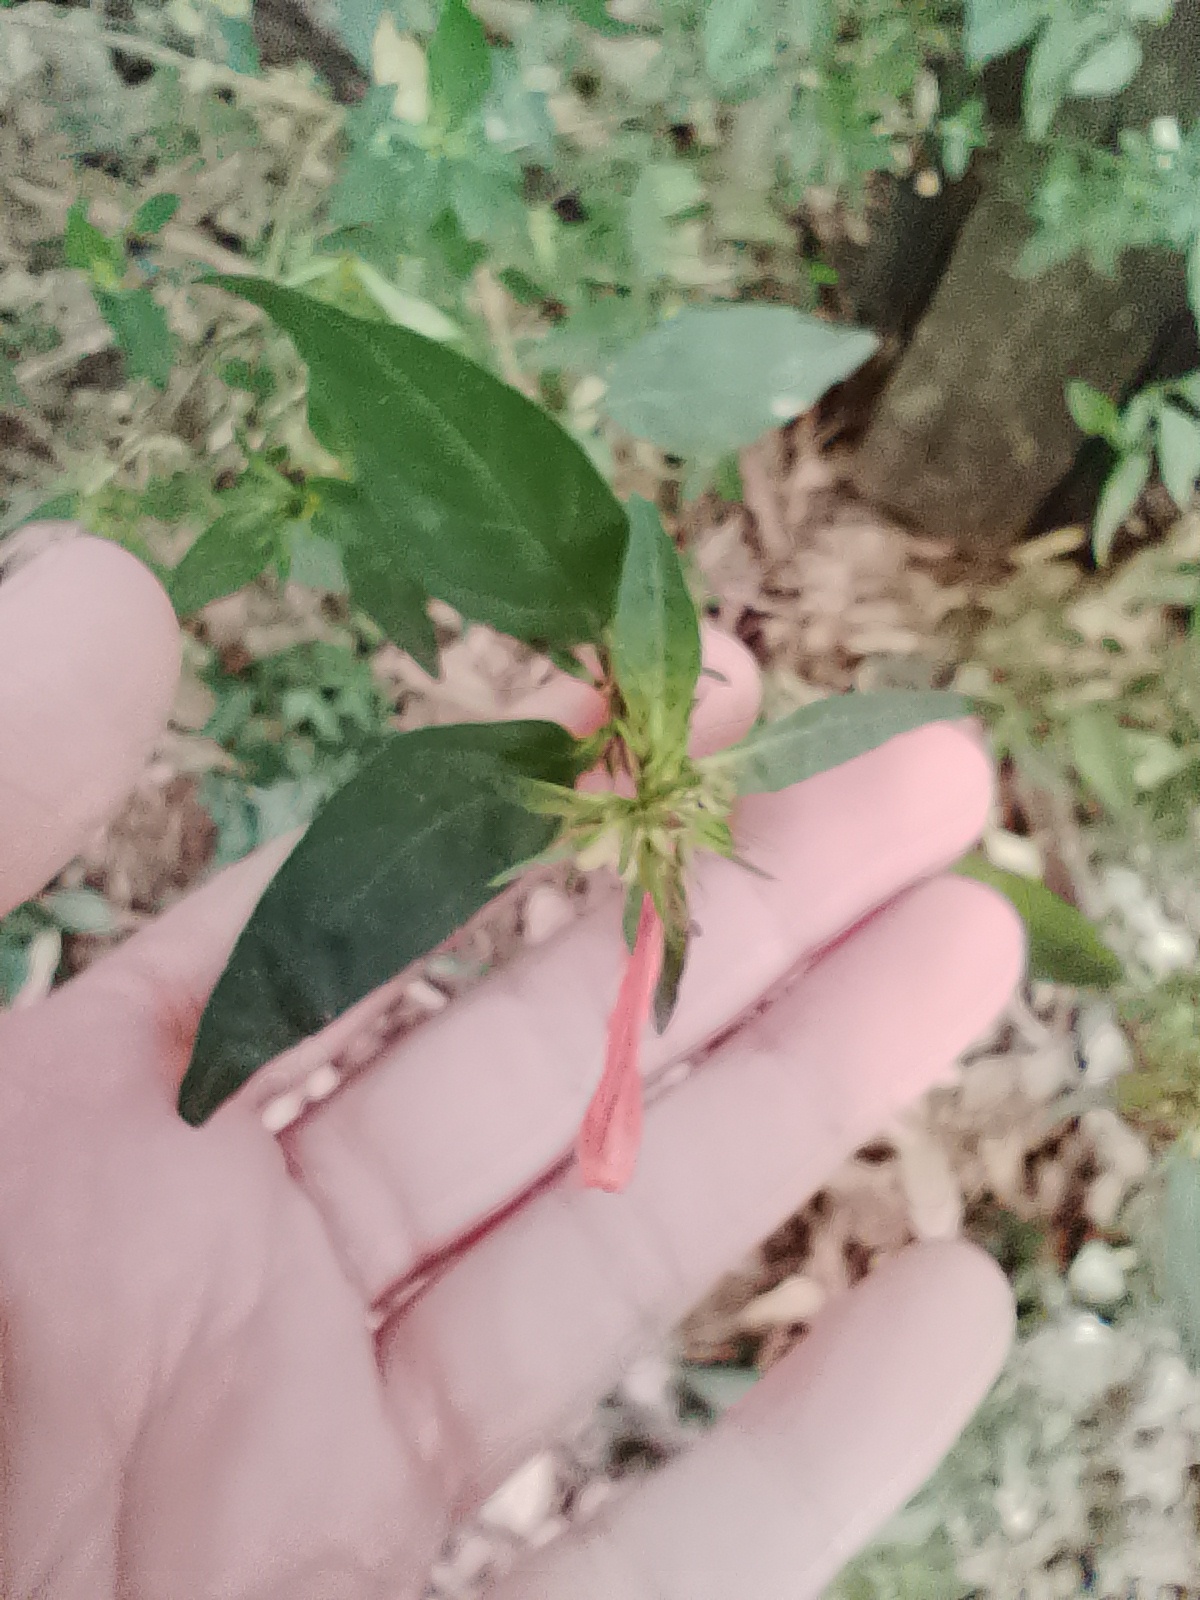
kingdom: Plantae
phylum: Tracheophyta
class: Magnoliopsida
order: Lamiales
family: Acanthaceae
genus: Dicliptera
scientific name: Dicliptera squarrosa
